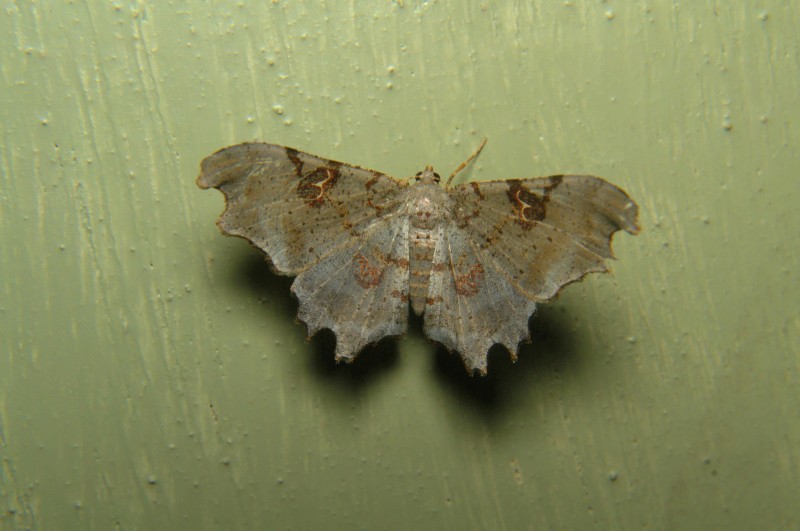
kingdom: Animalia
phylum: Arthropoda
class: Insecta
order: Lepidoptera
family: Geometridae
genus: Hyalinetta
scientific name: Hyalinetta circumflexa
